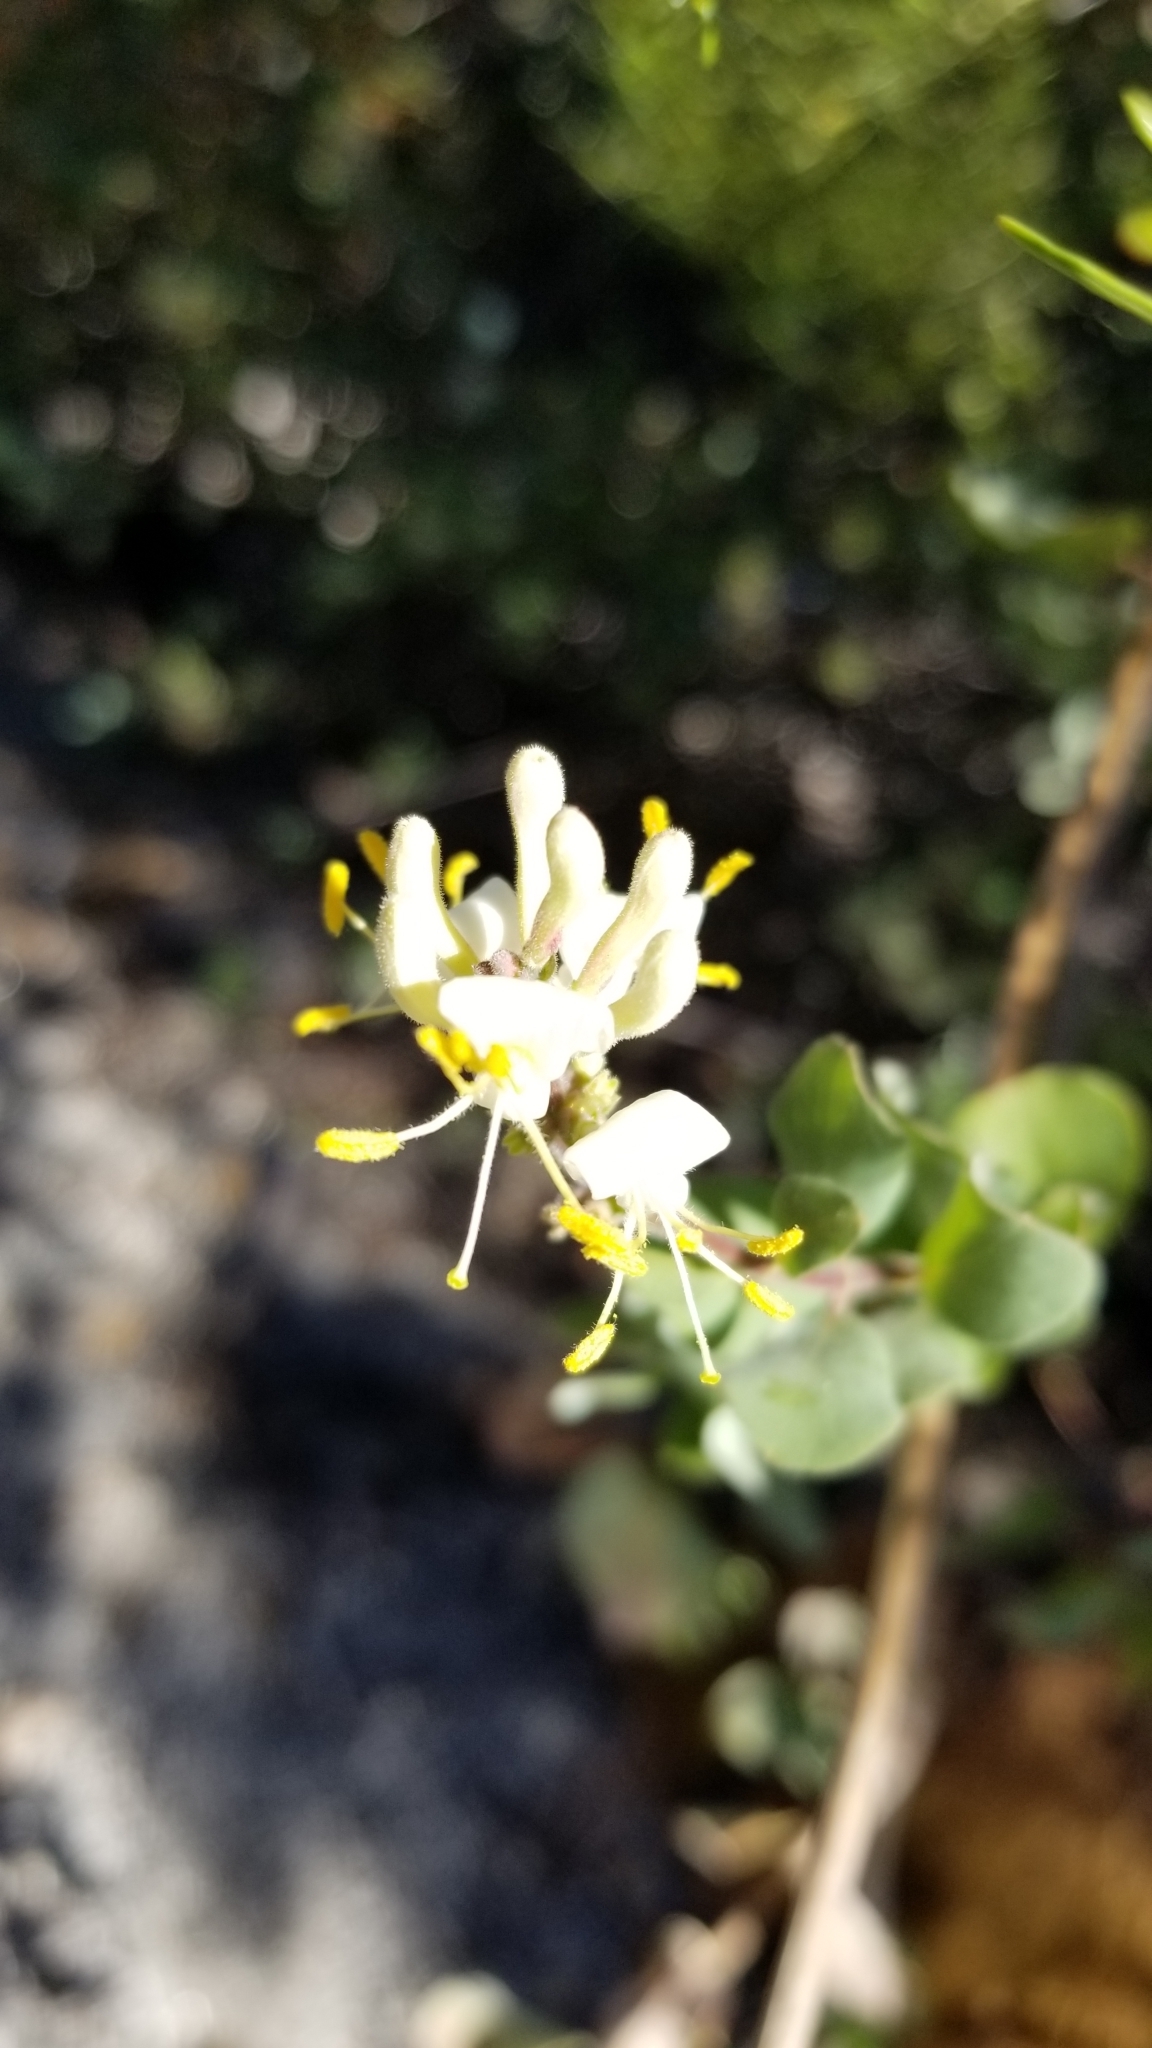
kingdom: Plantae
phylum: Tracheophyta
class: Magnoliopsida
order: Dipsacales
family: Caprifoliaceae
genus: Lonicera
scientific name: Lonicera subspicata
